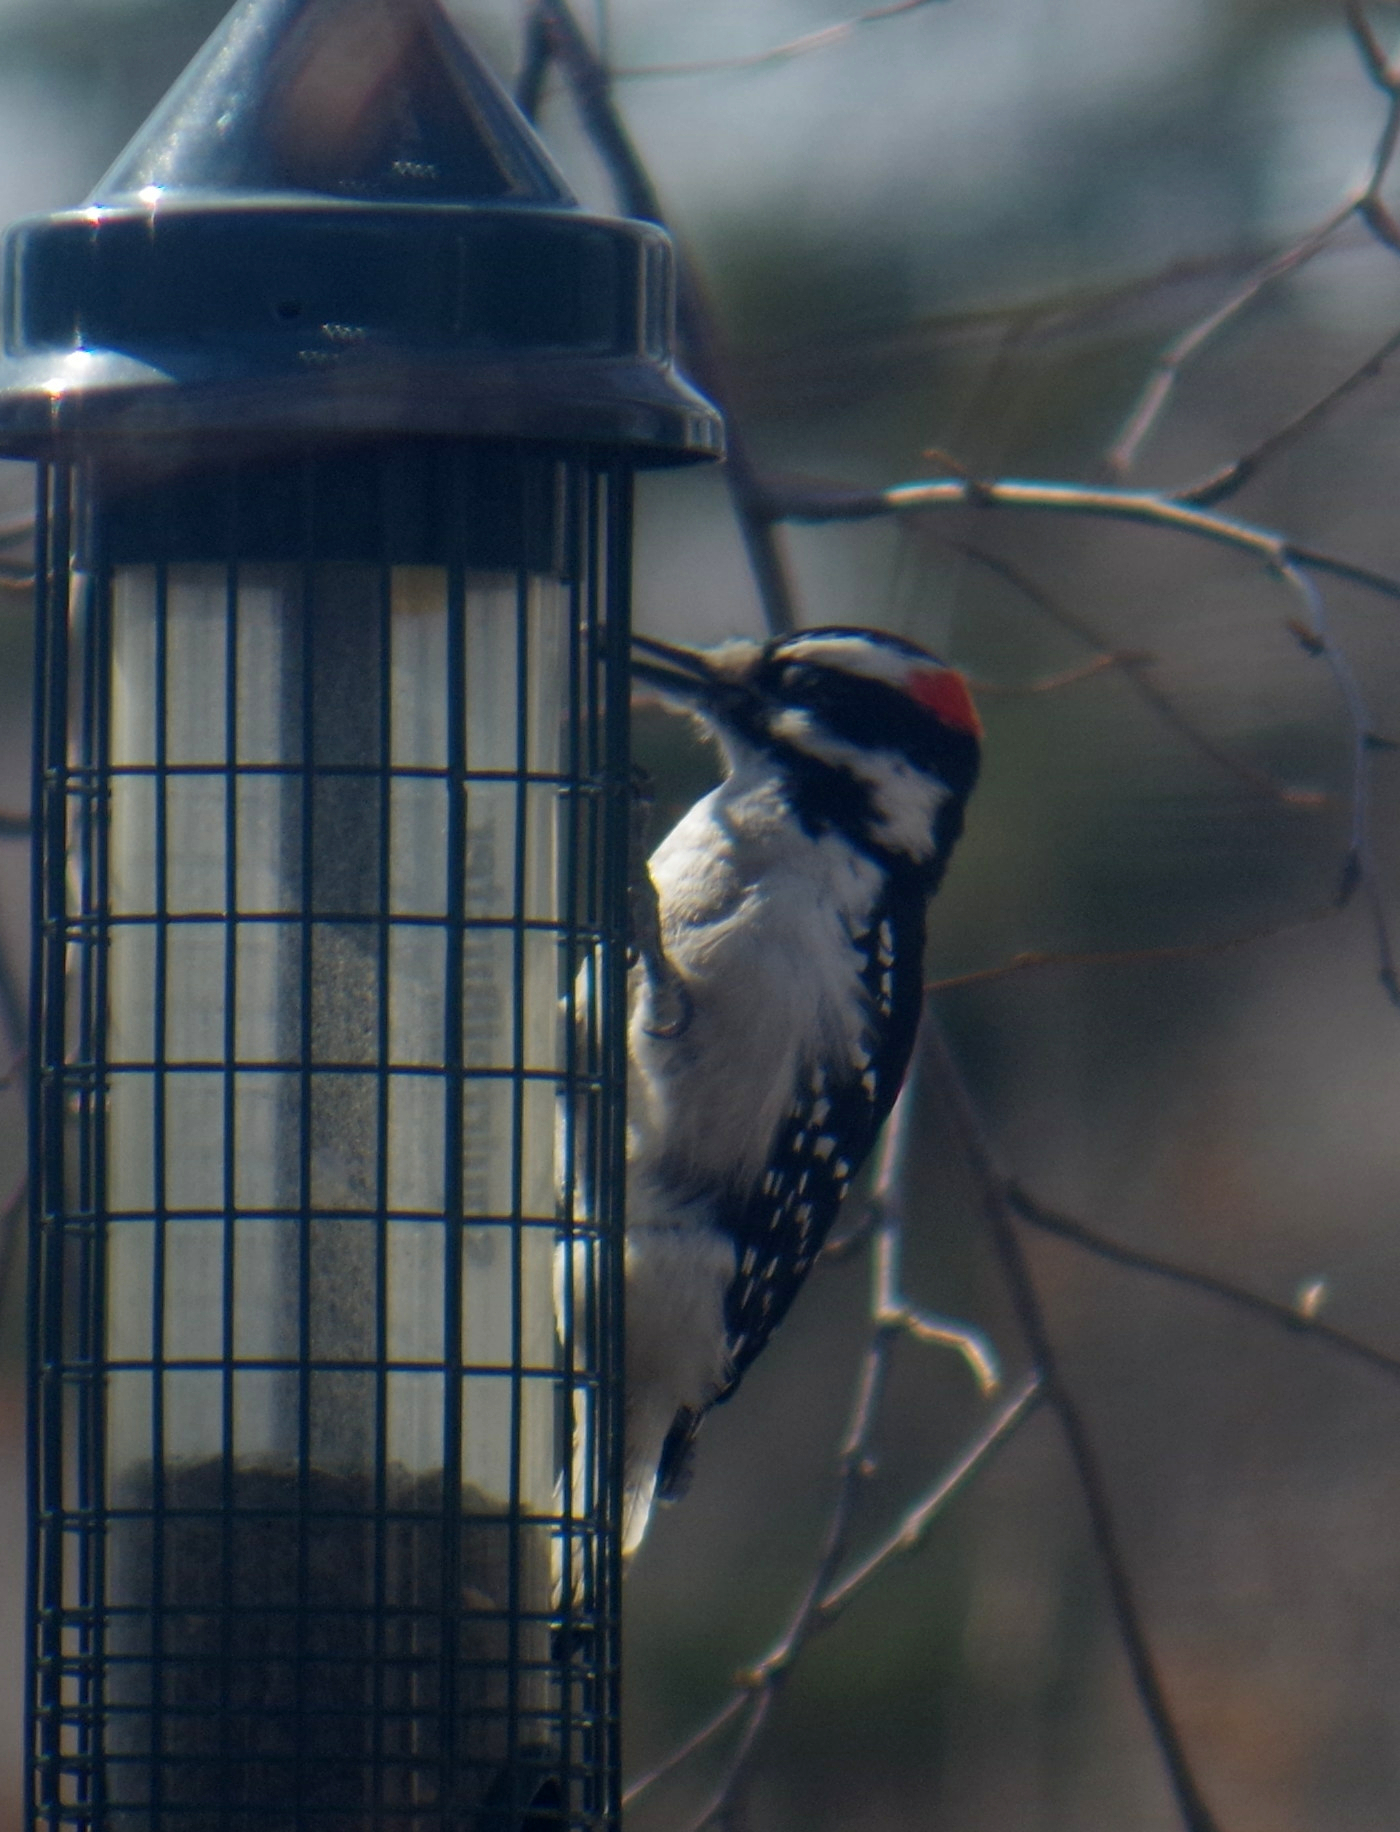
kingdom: Animalia
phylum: Chordata
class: Aves
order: Piciformes
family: Picidae
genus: Leuconotopicus
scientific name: Leuconotopicus villosus
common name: Hairy woodpecker
